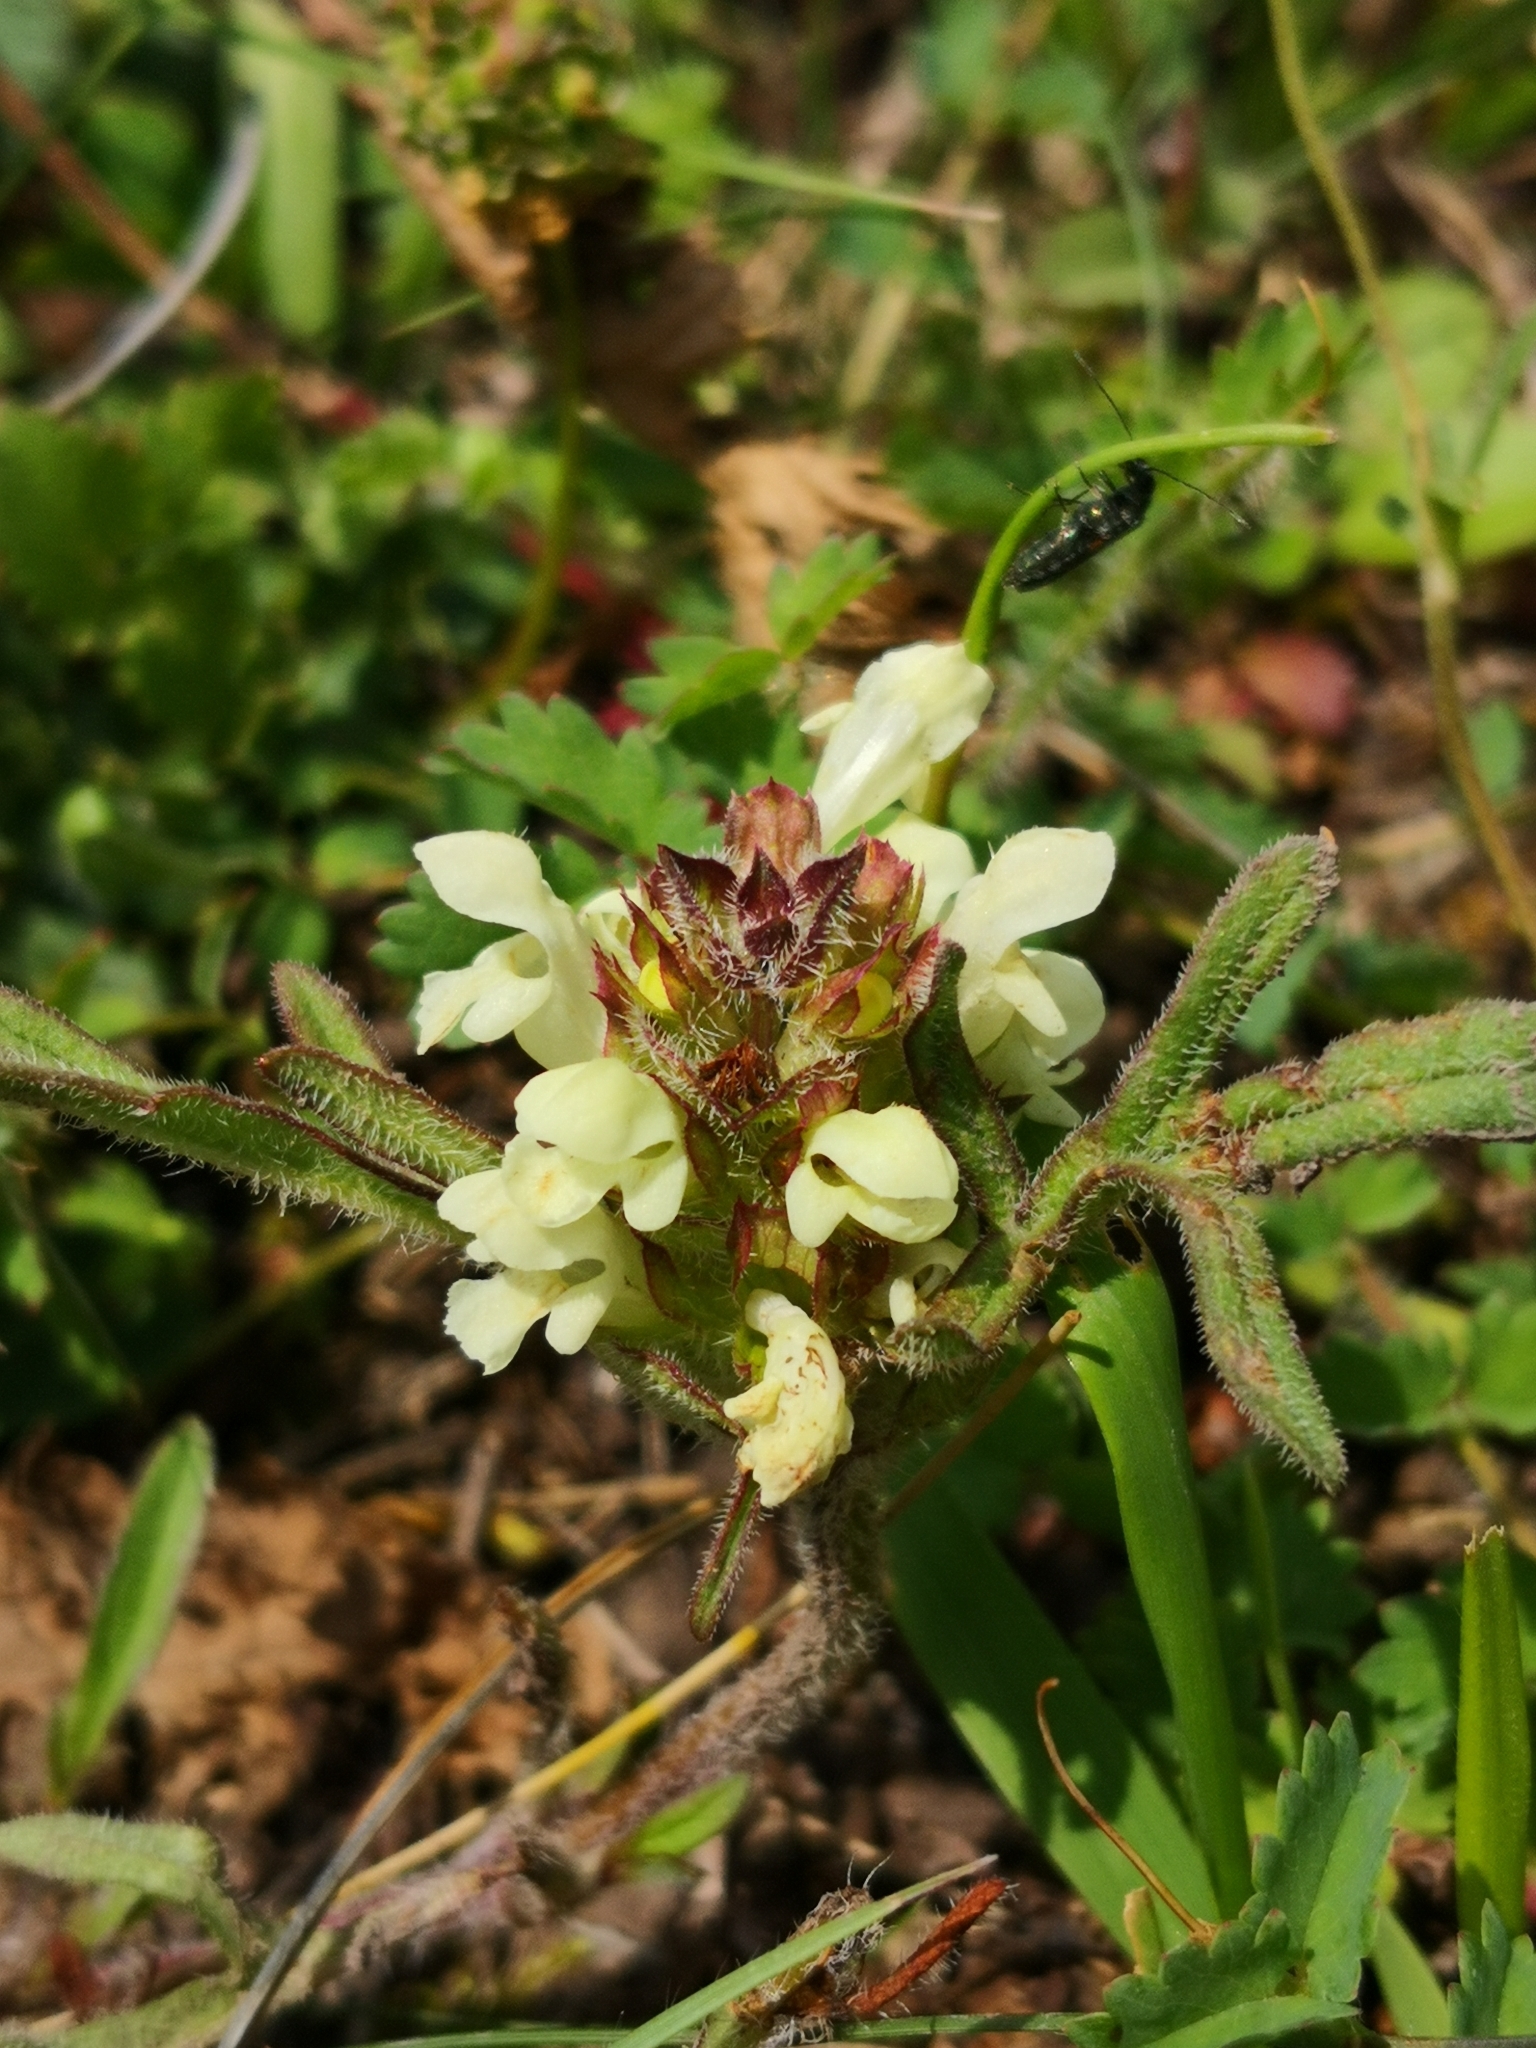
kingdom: Plantae
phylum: Tracheophyta
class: Magnoliopsida
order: Lamiales
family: Lamiaceae
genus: Prunella
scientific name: Prunella laciniata
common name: Cut-leaved selfheal
